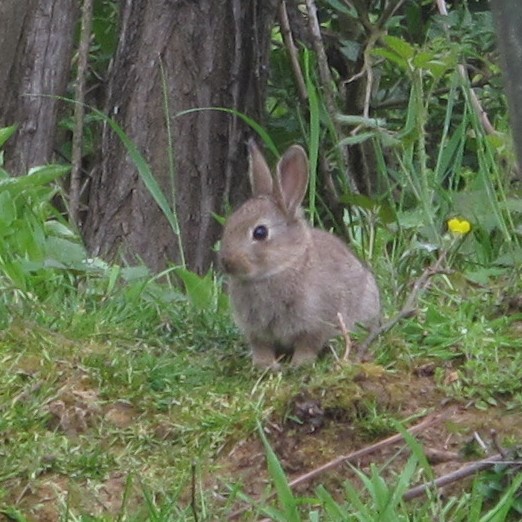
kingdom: Animalia
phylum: Chordata
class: Mammalia
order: Lagomorpha
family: Leporidae
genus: Oryctolagus
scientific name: Oryctolagus cuniculus
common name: European rabbit
